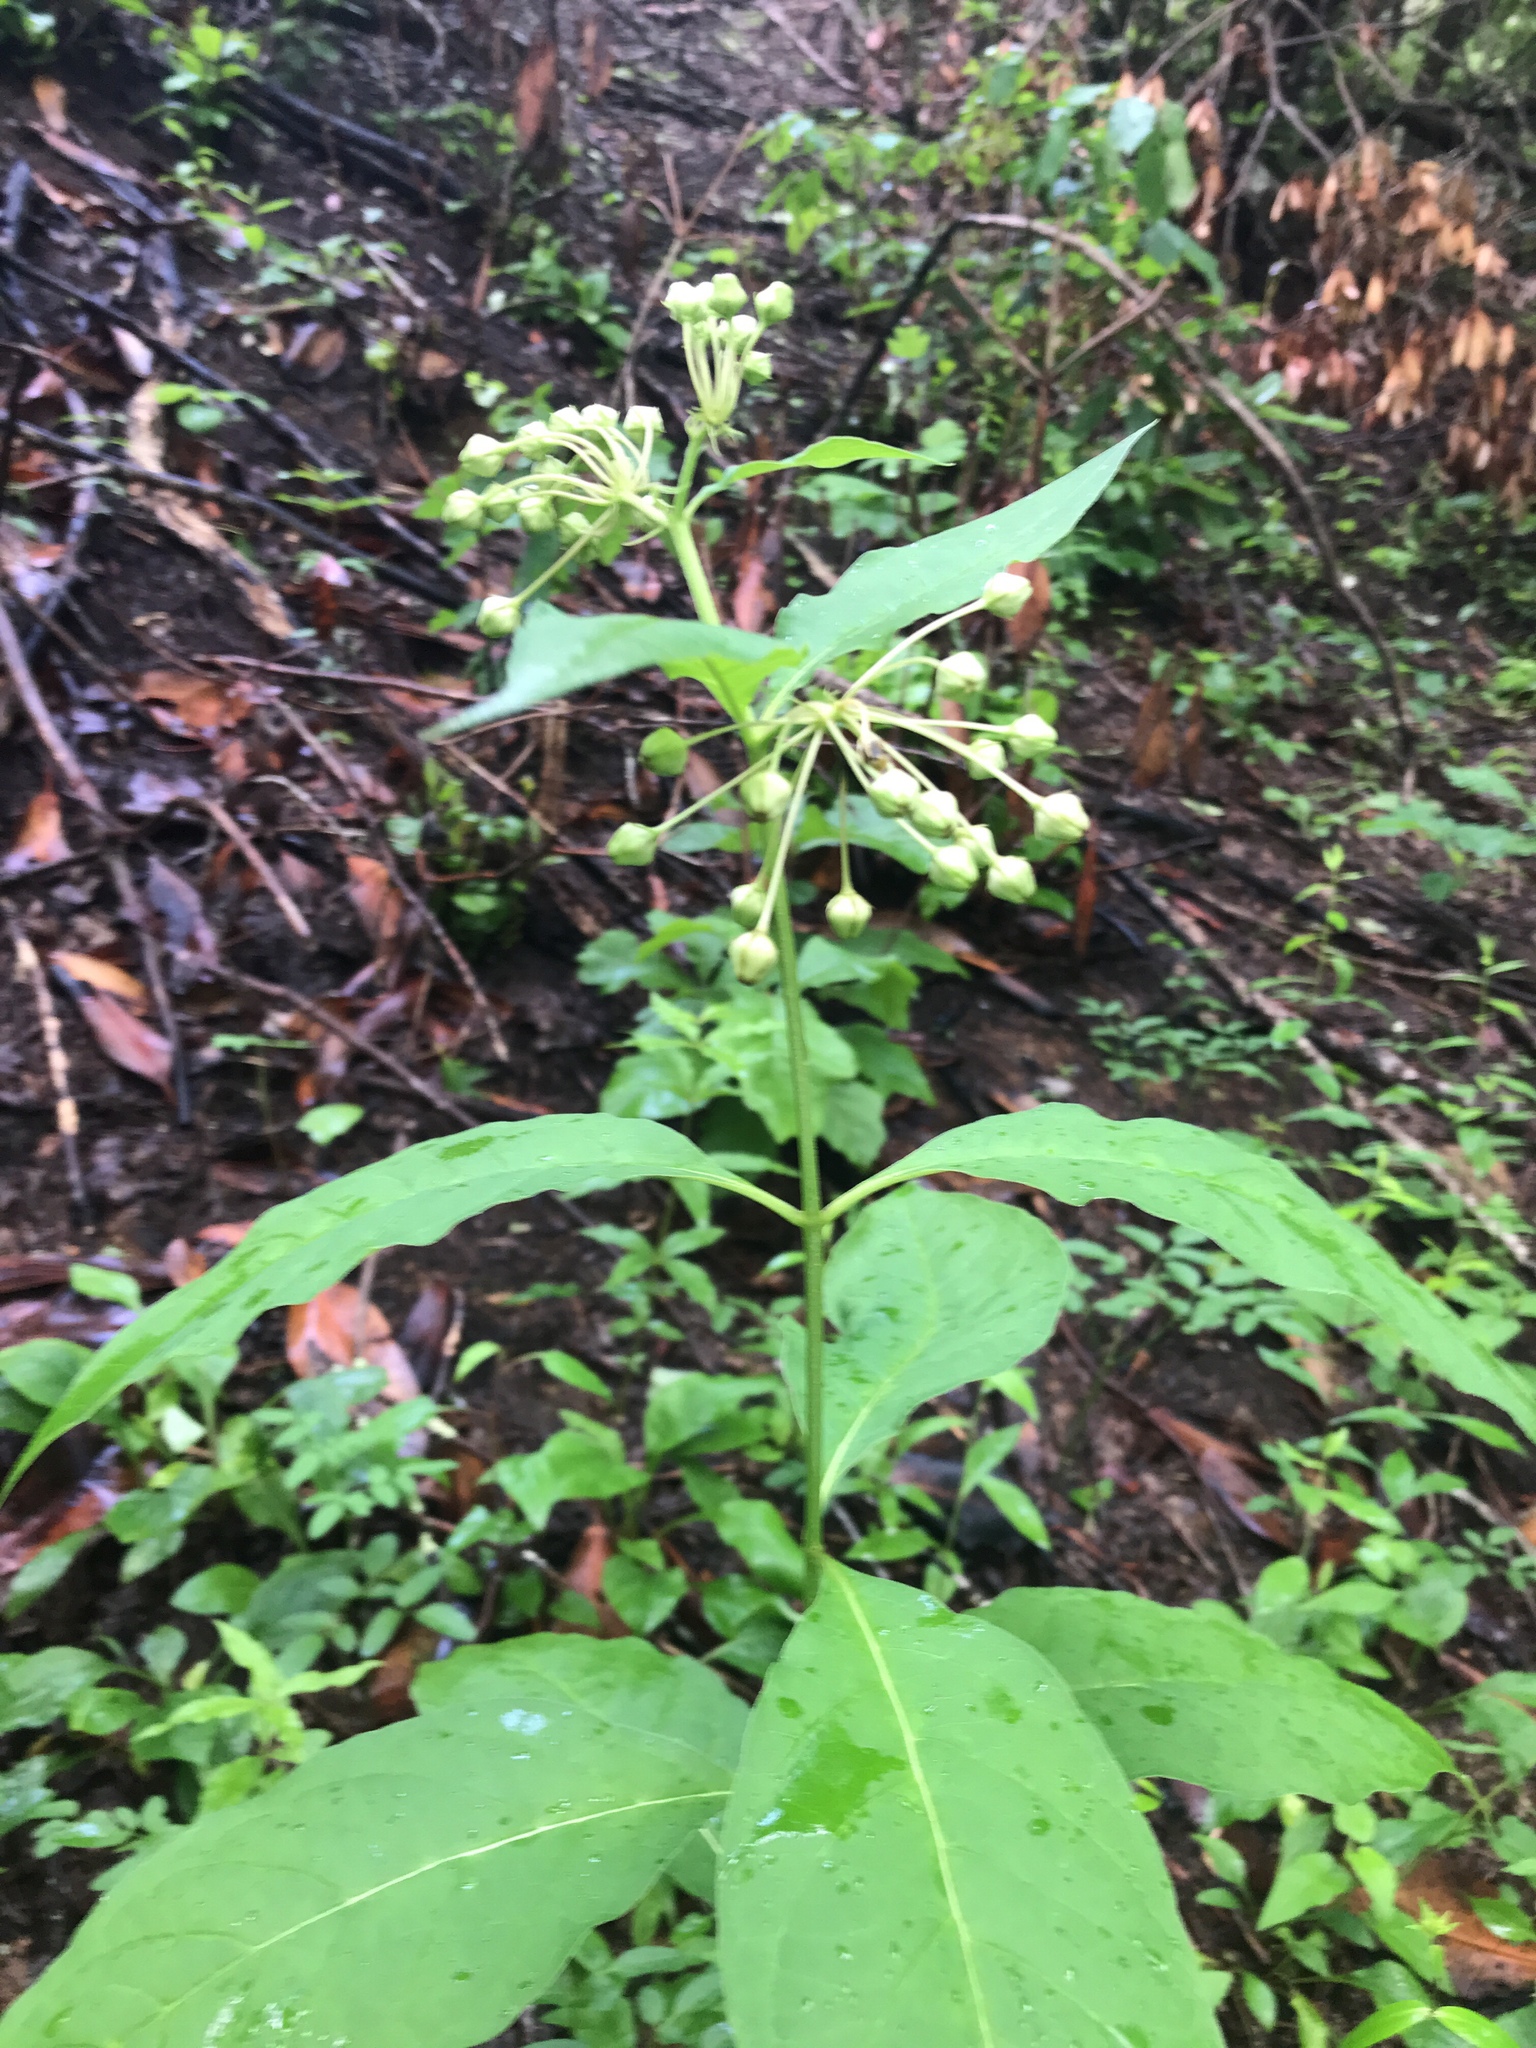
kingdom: Plantae
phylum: Tracheophyta
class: Magnoliopsida
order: Gentianales
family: Apocynaceae
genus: Asclepias
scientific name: Asclepias exaltata
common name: Poke milkweed
